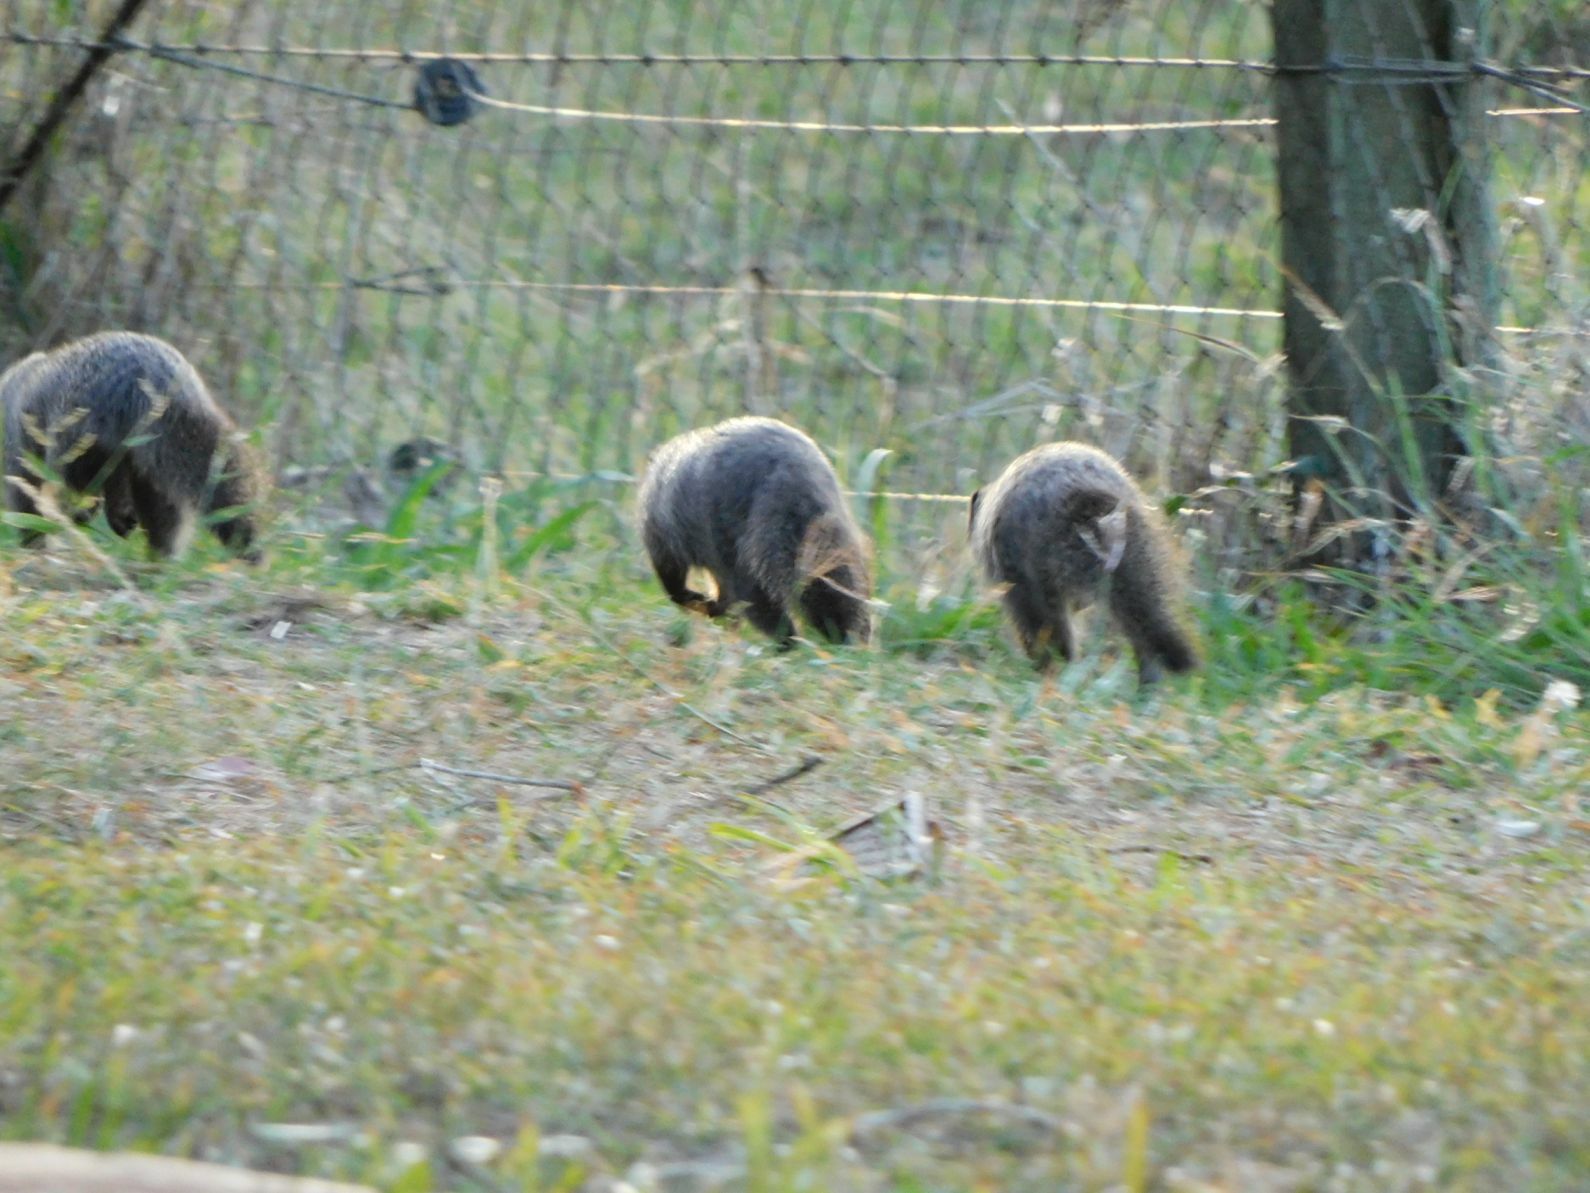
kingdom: Animalia
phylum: Chordata
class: Mammalia
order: Carnivora
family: Herpestidae
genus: Mungos
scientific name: Mungos mungo
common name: Banded mongoose
